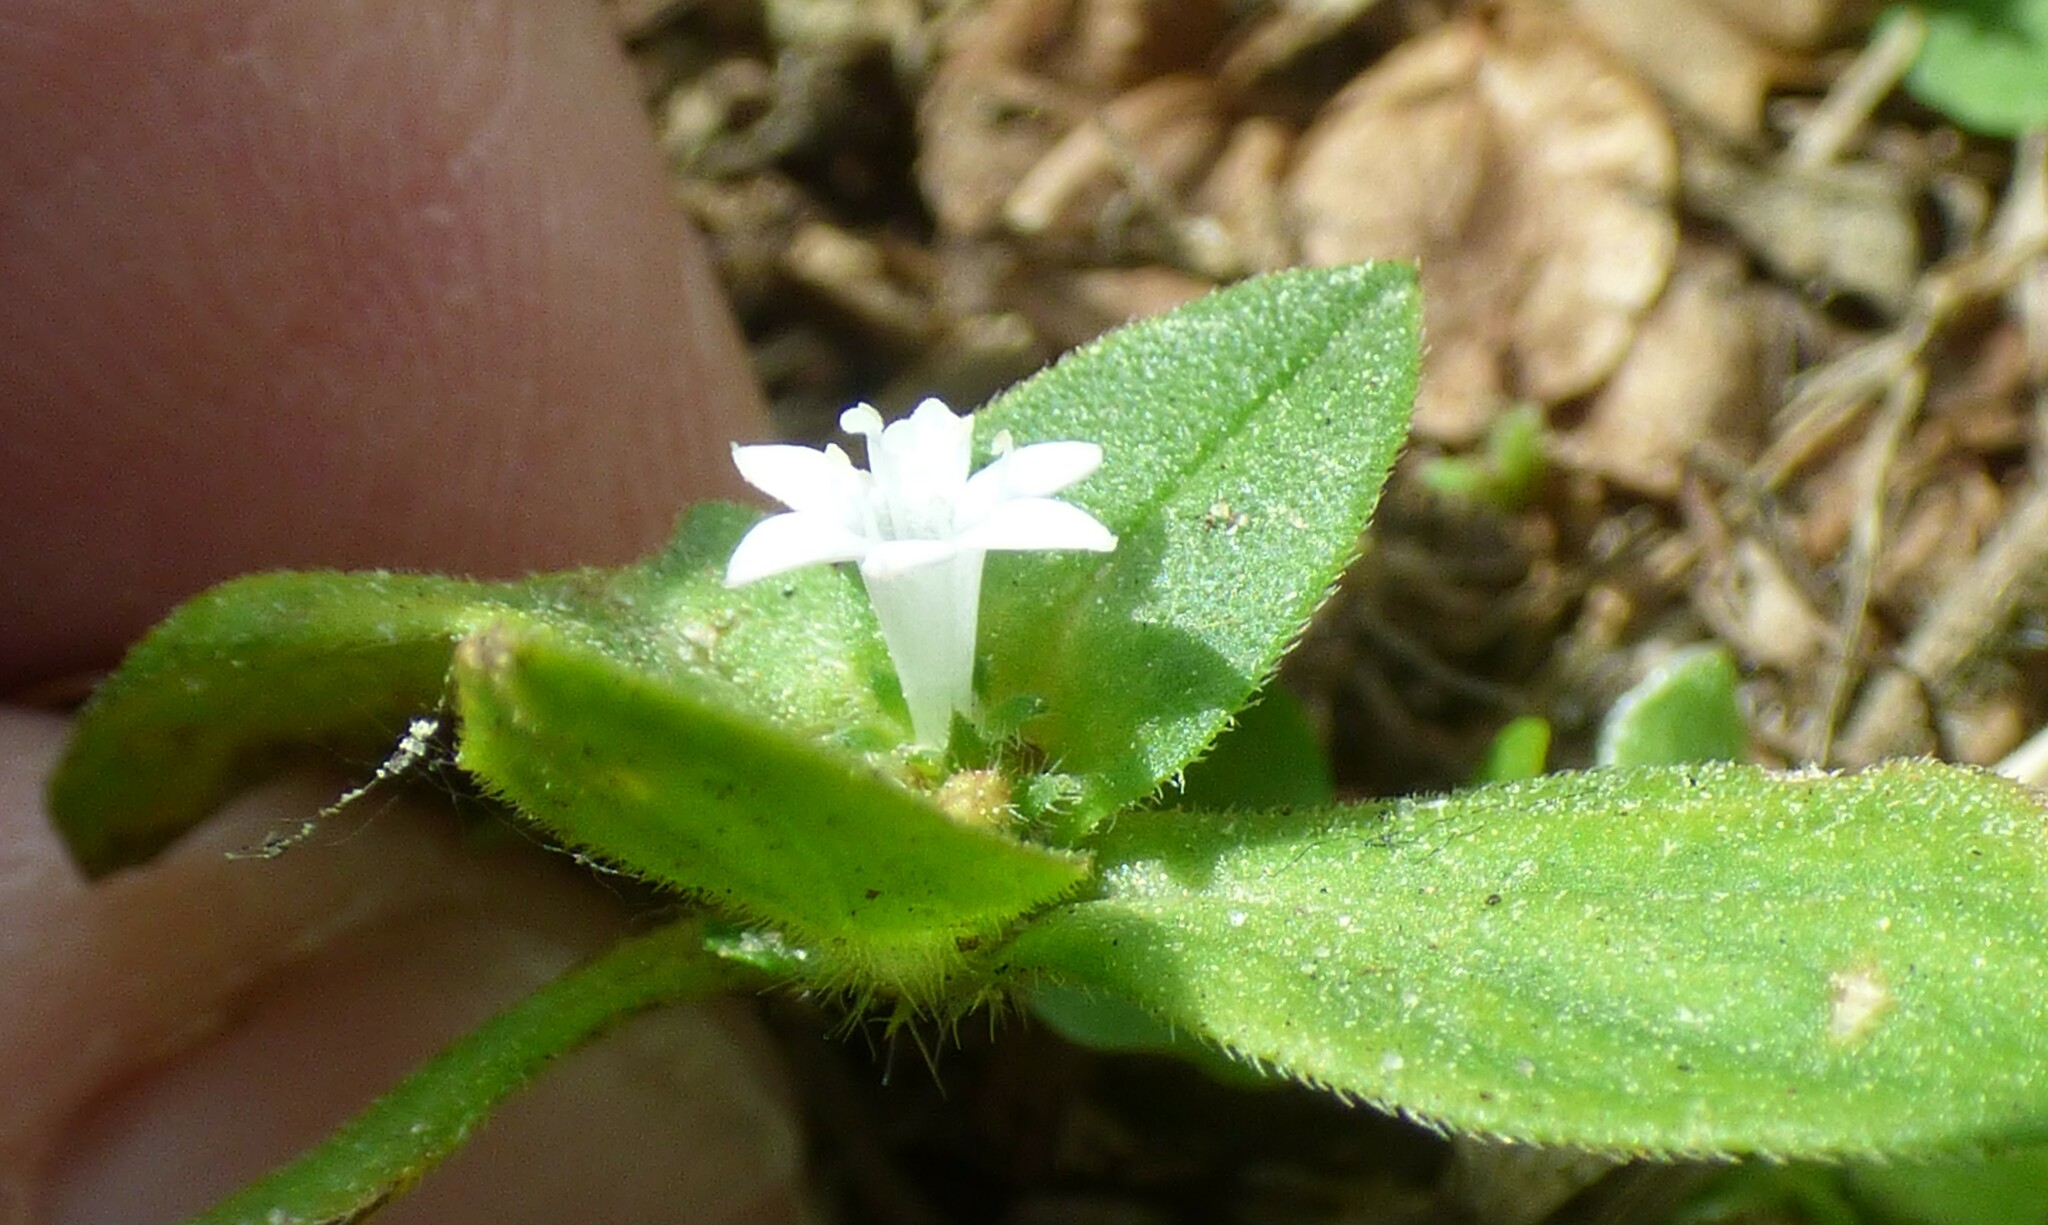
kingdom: Plantae
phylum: Tracheophyta
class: Magnoliopsida
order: Gentianales
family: Rubiaceae
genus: Richardia
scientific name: Richardia brasiliensis
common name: Tropical mexican clover
